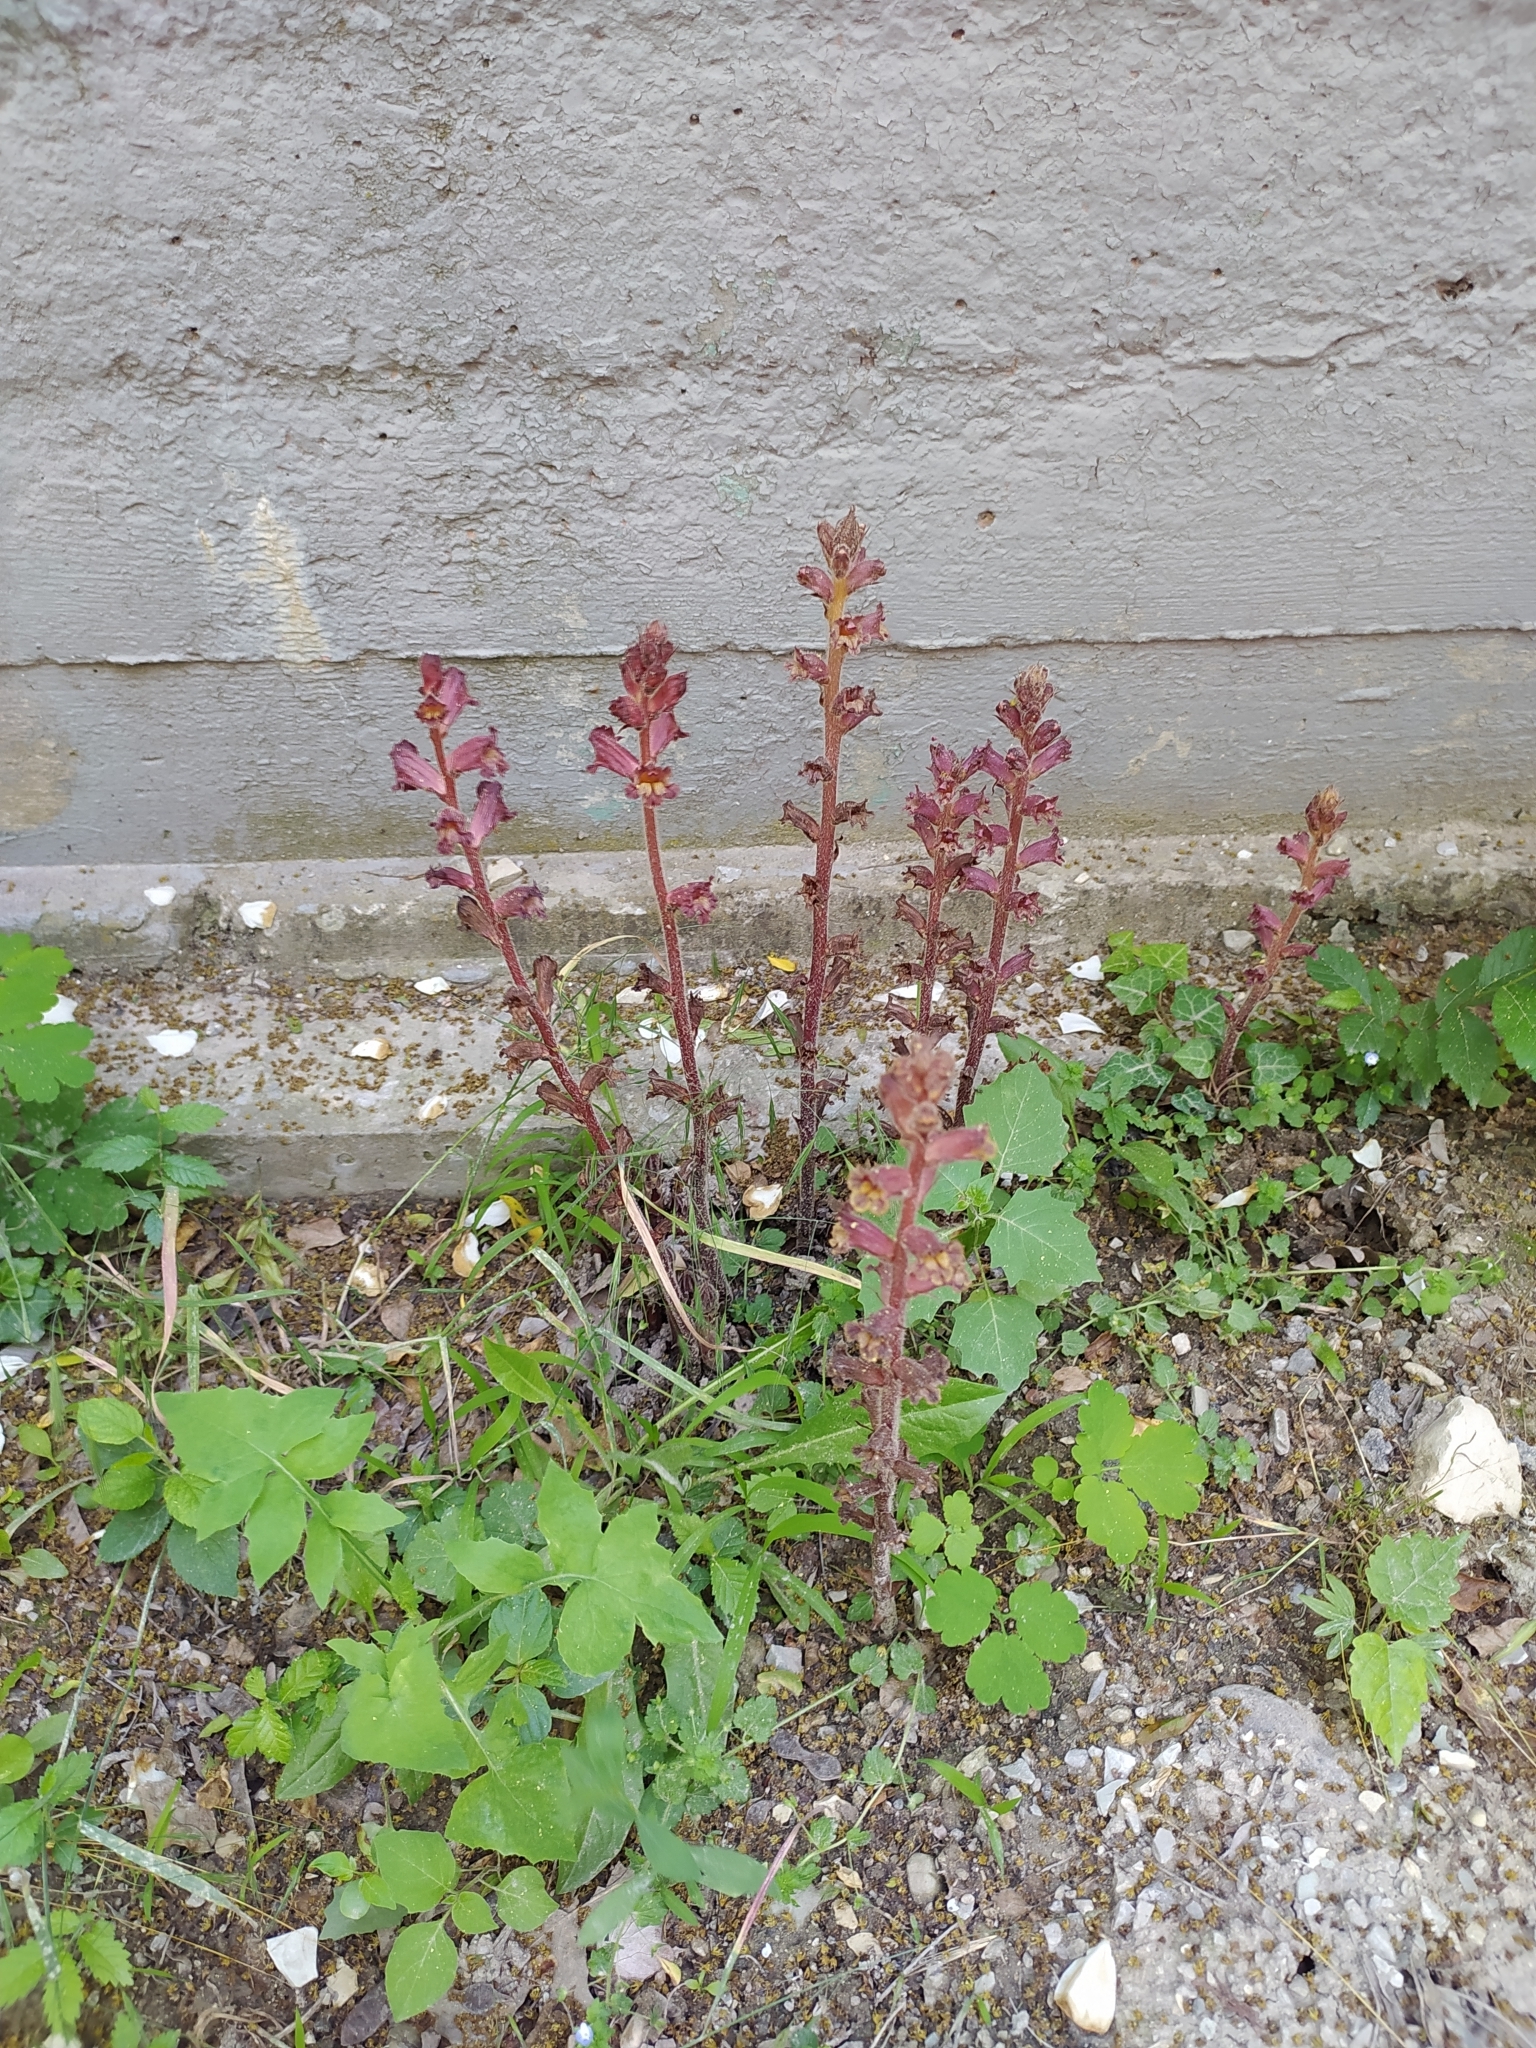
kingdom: Plantae
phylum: Tracheophyta
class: Magnoliopsida
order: Lamiales
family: Orobanchaceae
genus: Orobanche
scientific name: Orobanche laxissima
